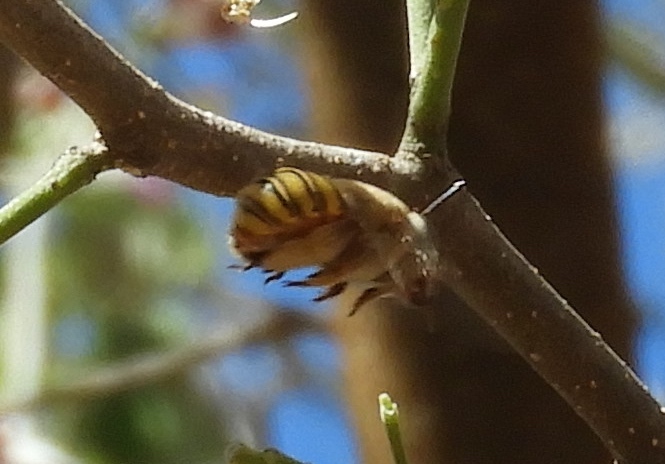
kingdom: Animalia
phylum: Arthropoda
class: Insecta
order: Hymenoptera
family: Apidae
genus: Centris
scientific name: Centris aethyctera
